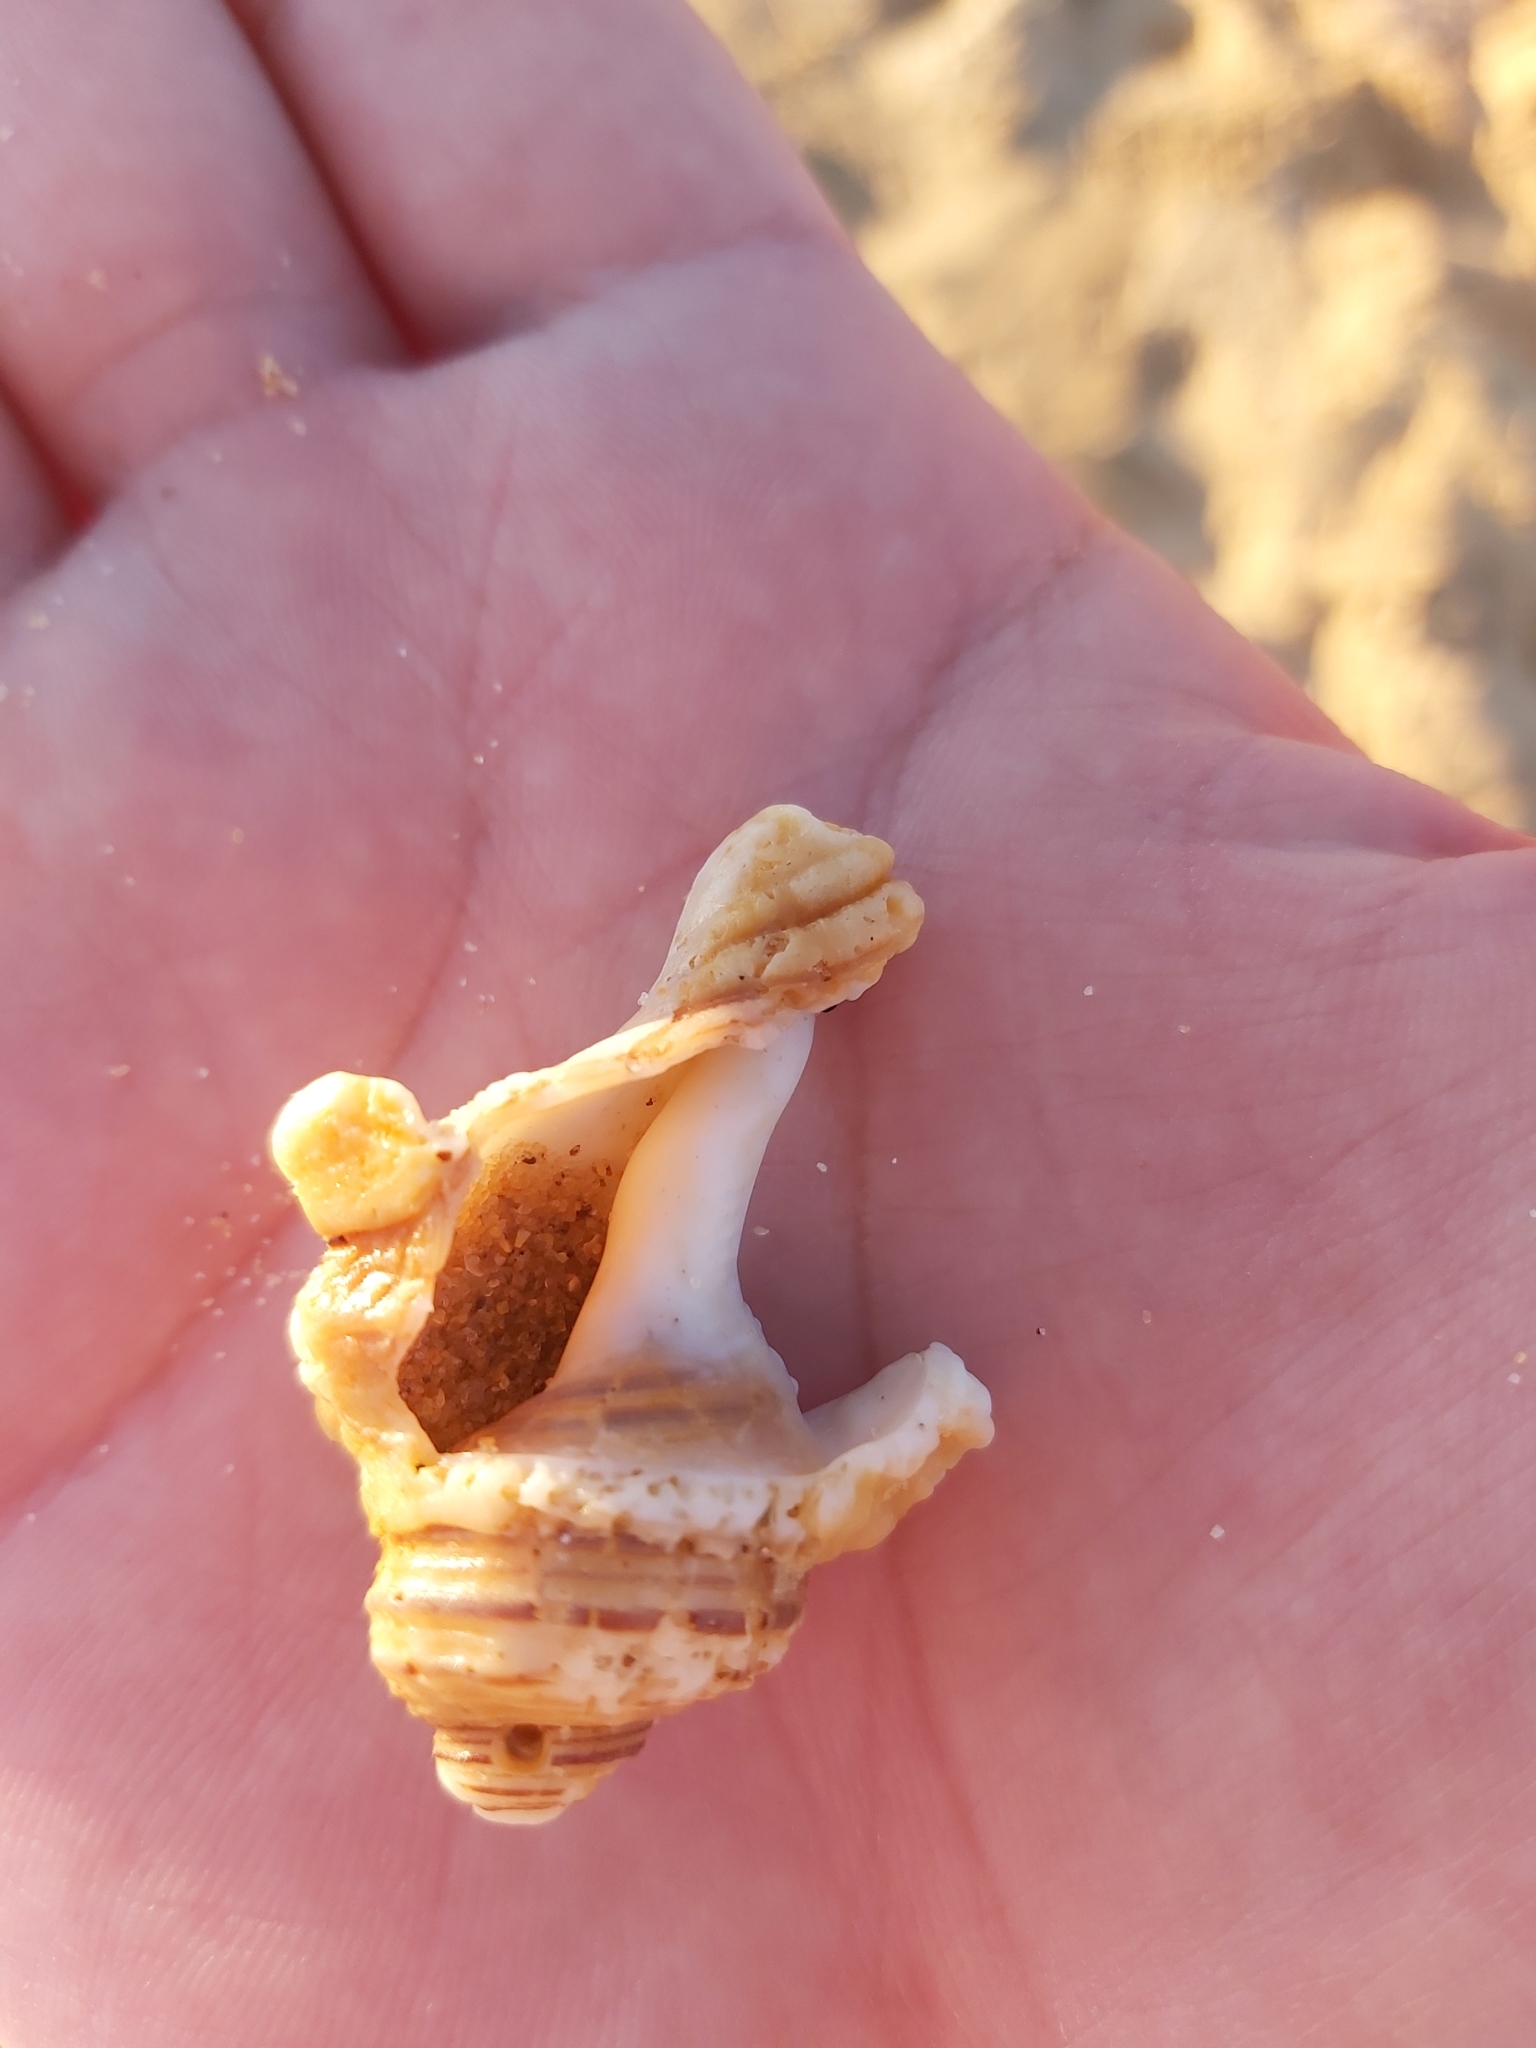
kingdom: Animalia
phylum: Mollusca
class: Gastropoda
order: Littorinimorpha
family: Cymatiidae
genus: Cabestana
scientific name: Cabestana spengleri
